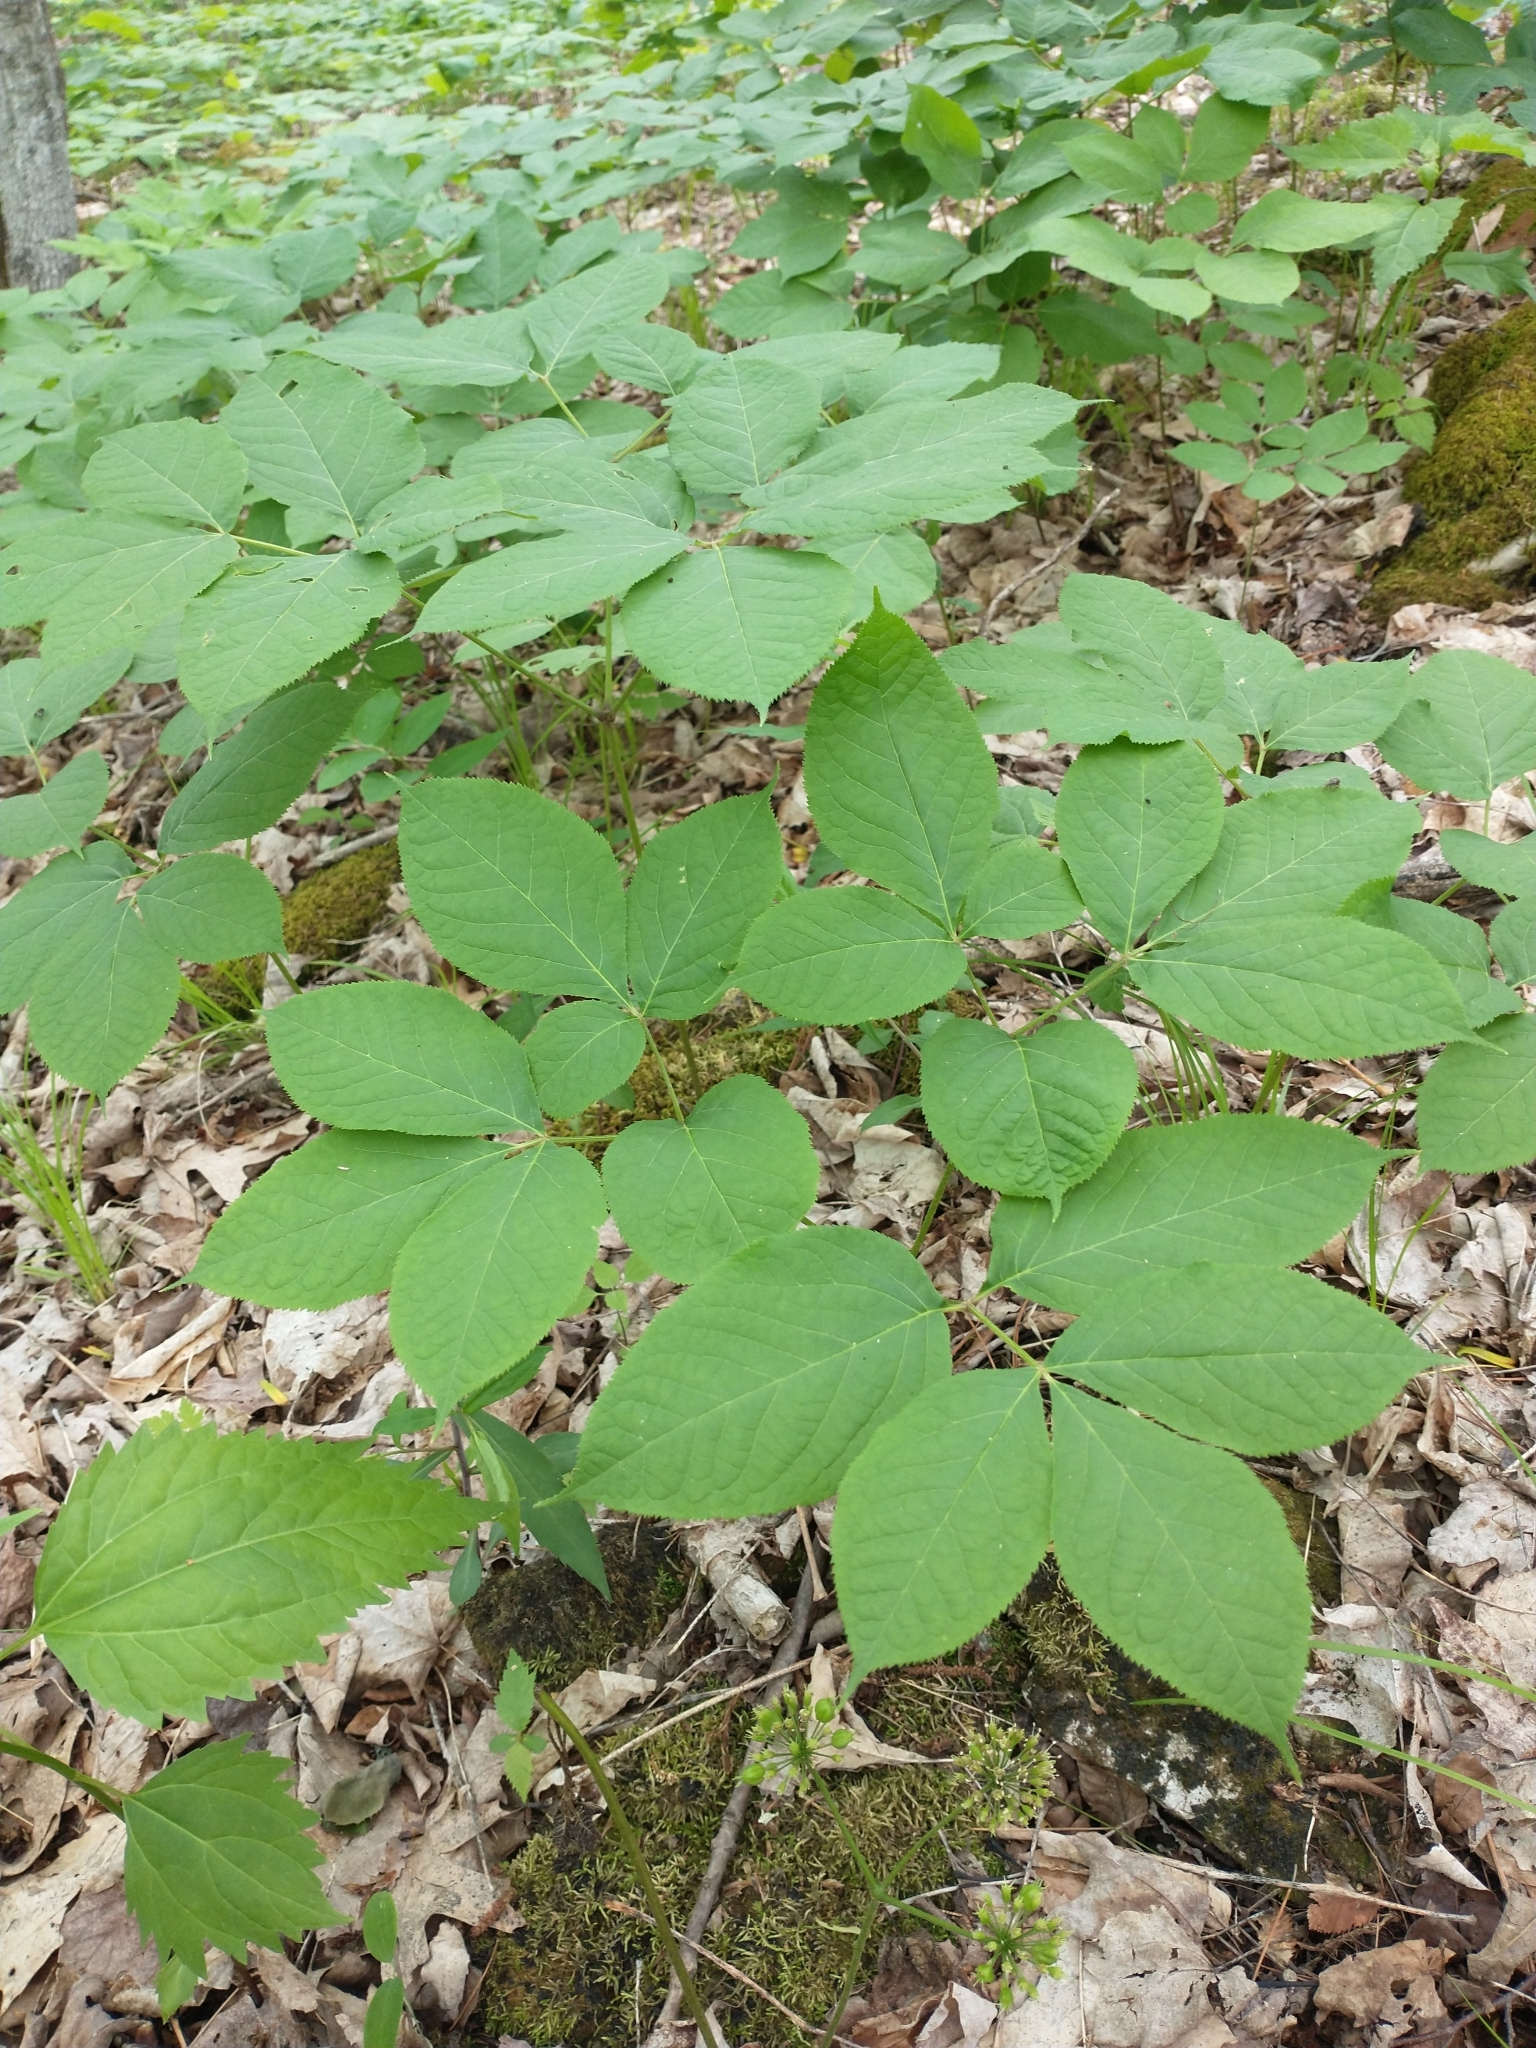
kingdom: Plantae
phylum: Tracheophyta
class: Magnoliopsida
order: Apiales
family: Araliaceae
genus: Aralia
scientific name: Aralia nudicaulis
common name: Wild sarsaparilla
